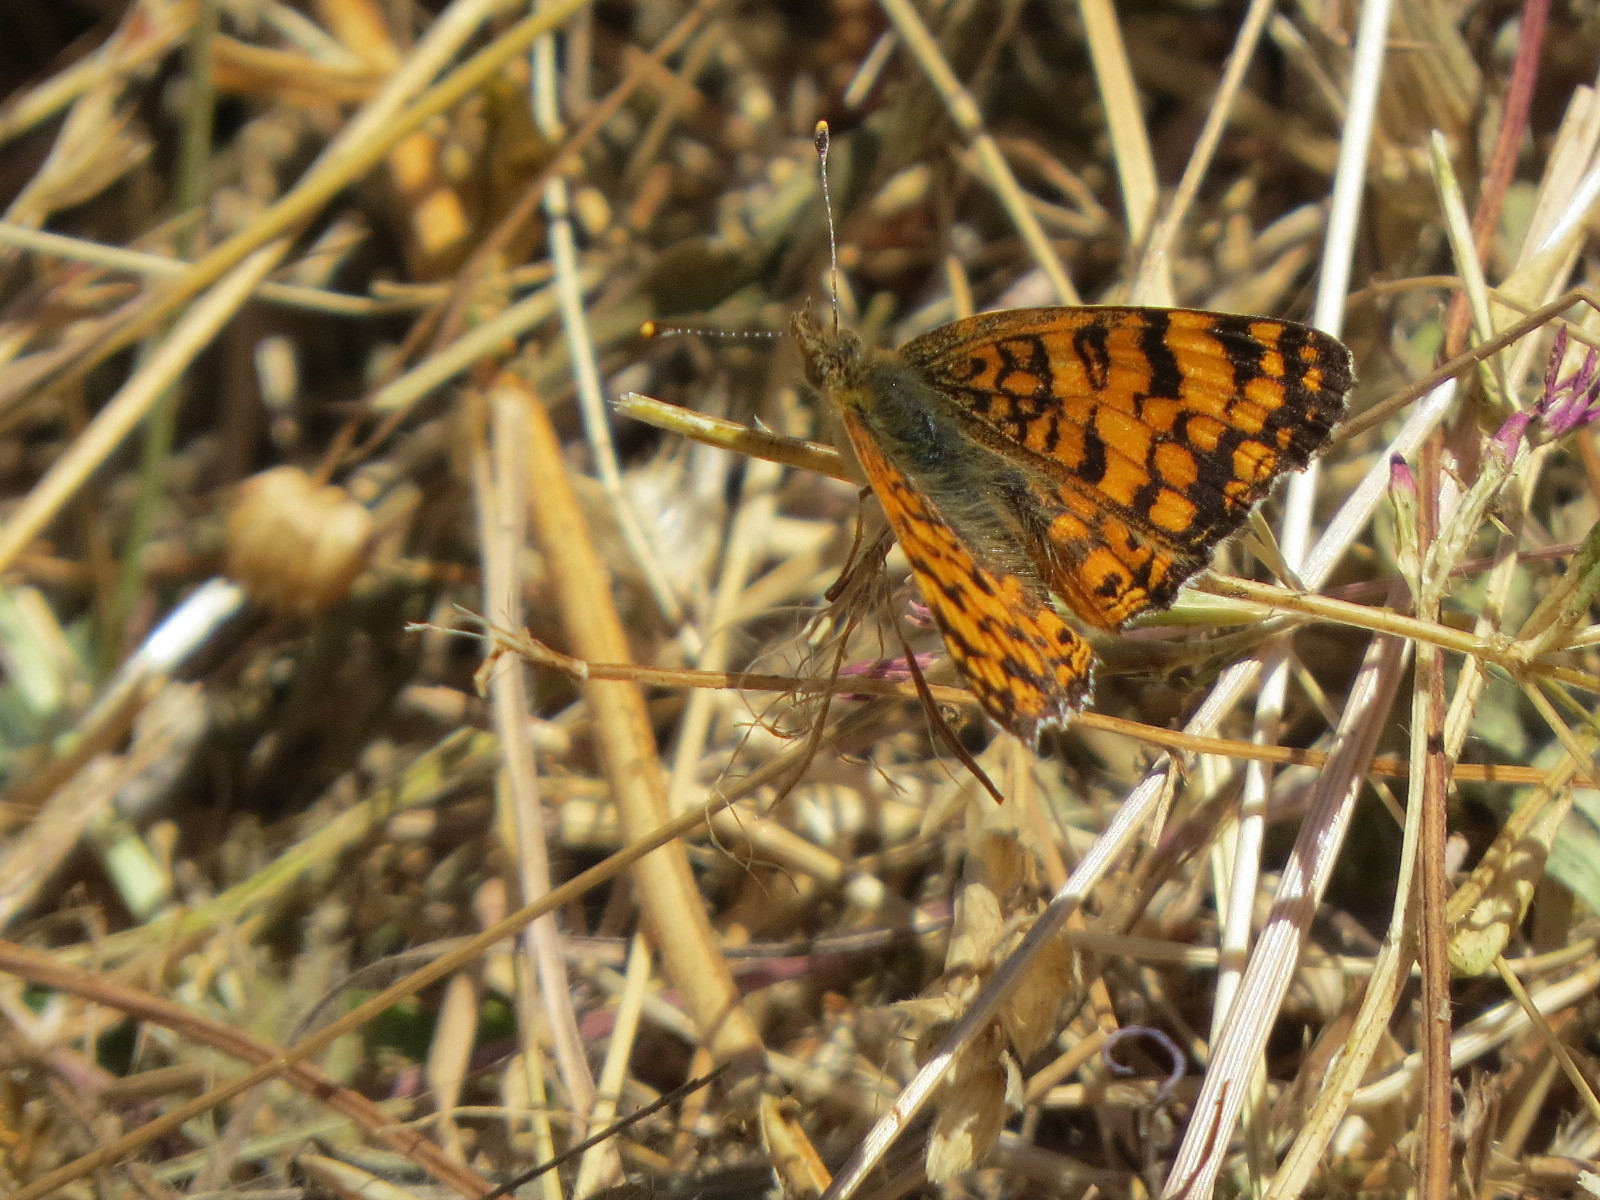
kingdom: Animalia
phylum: Arthropoda
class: Insecta
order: Lepidoptera
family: Nymphalidae
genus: Eresia
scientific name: Eresia aveyrona
